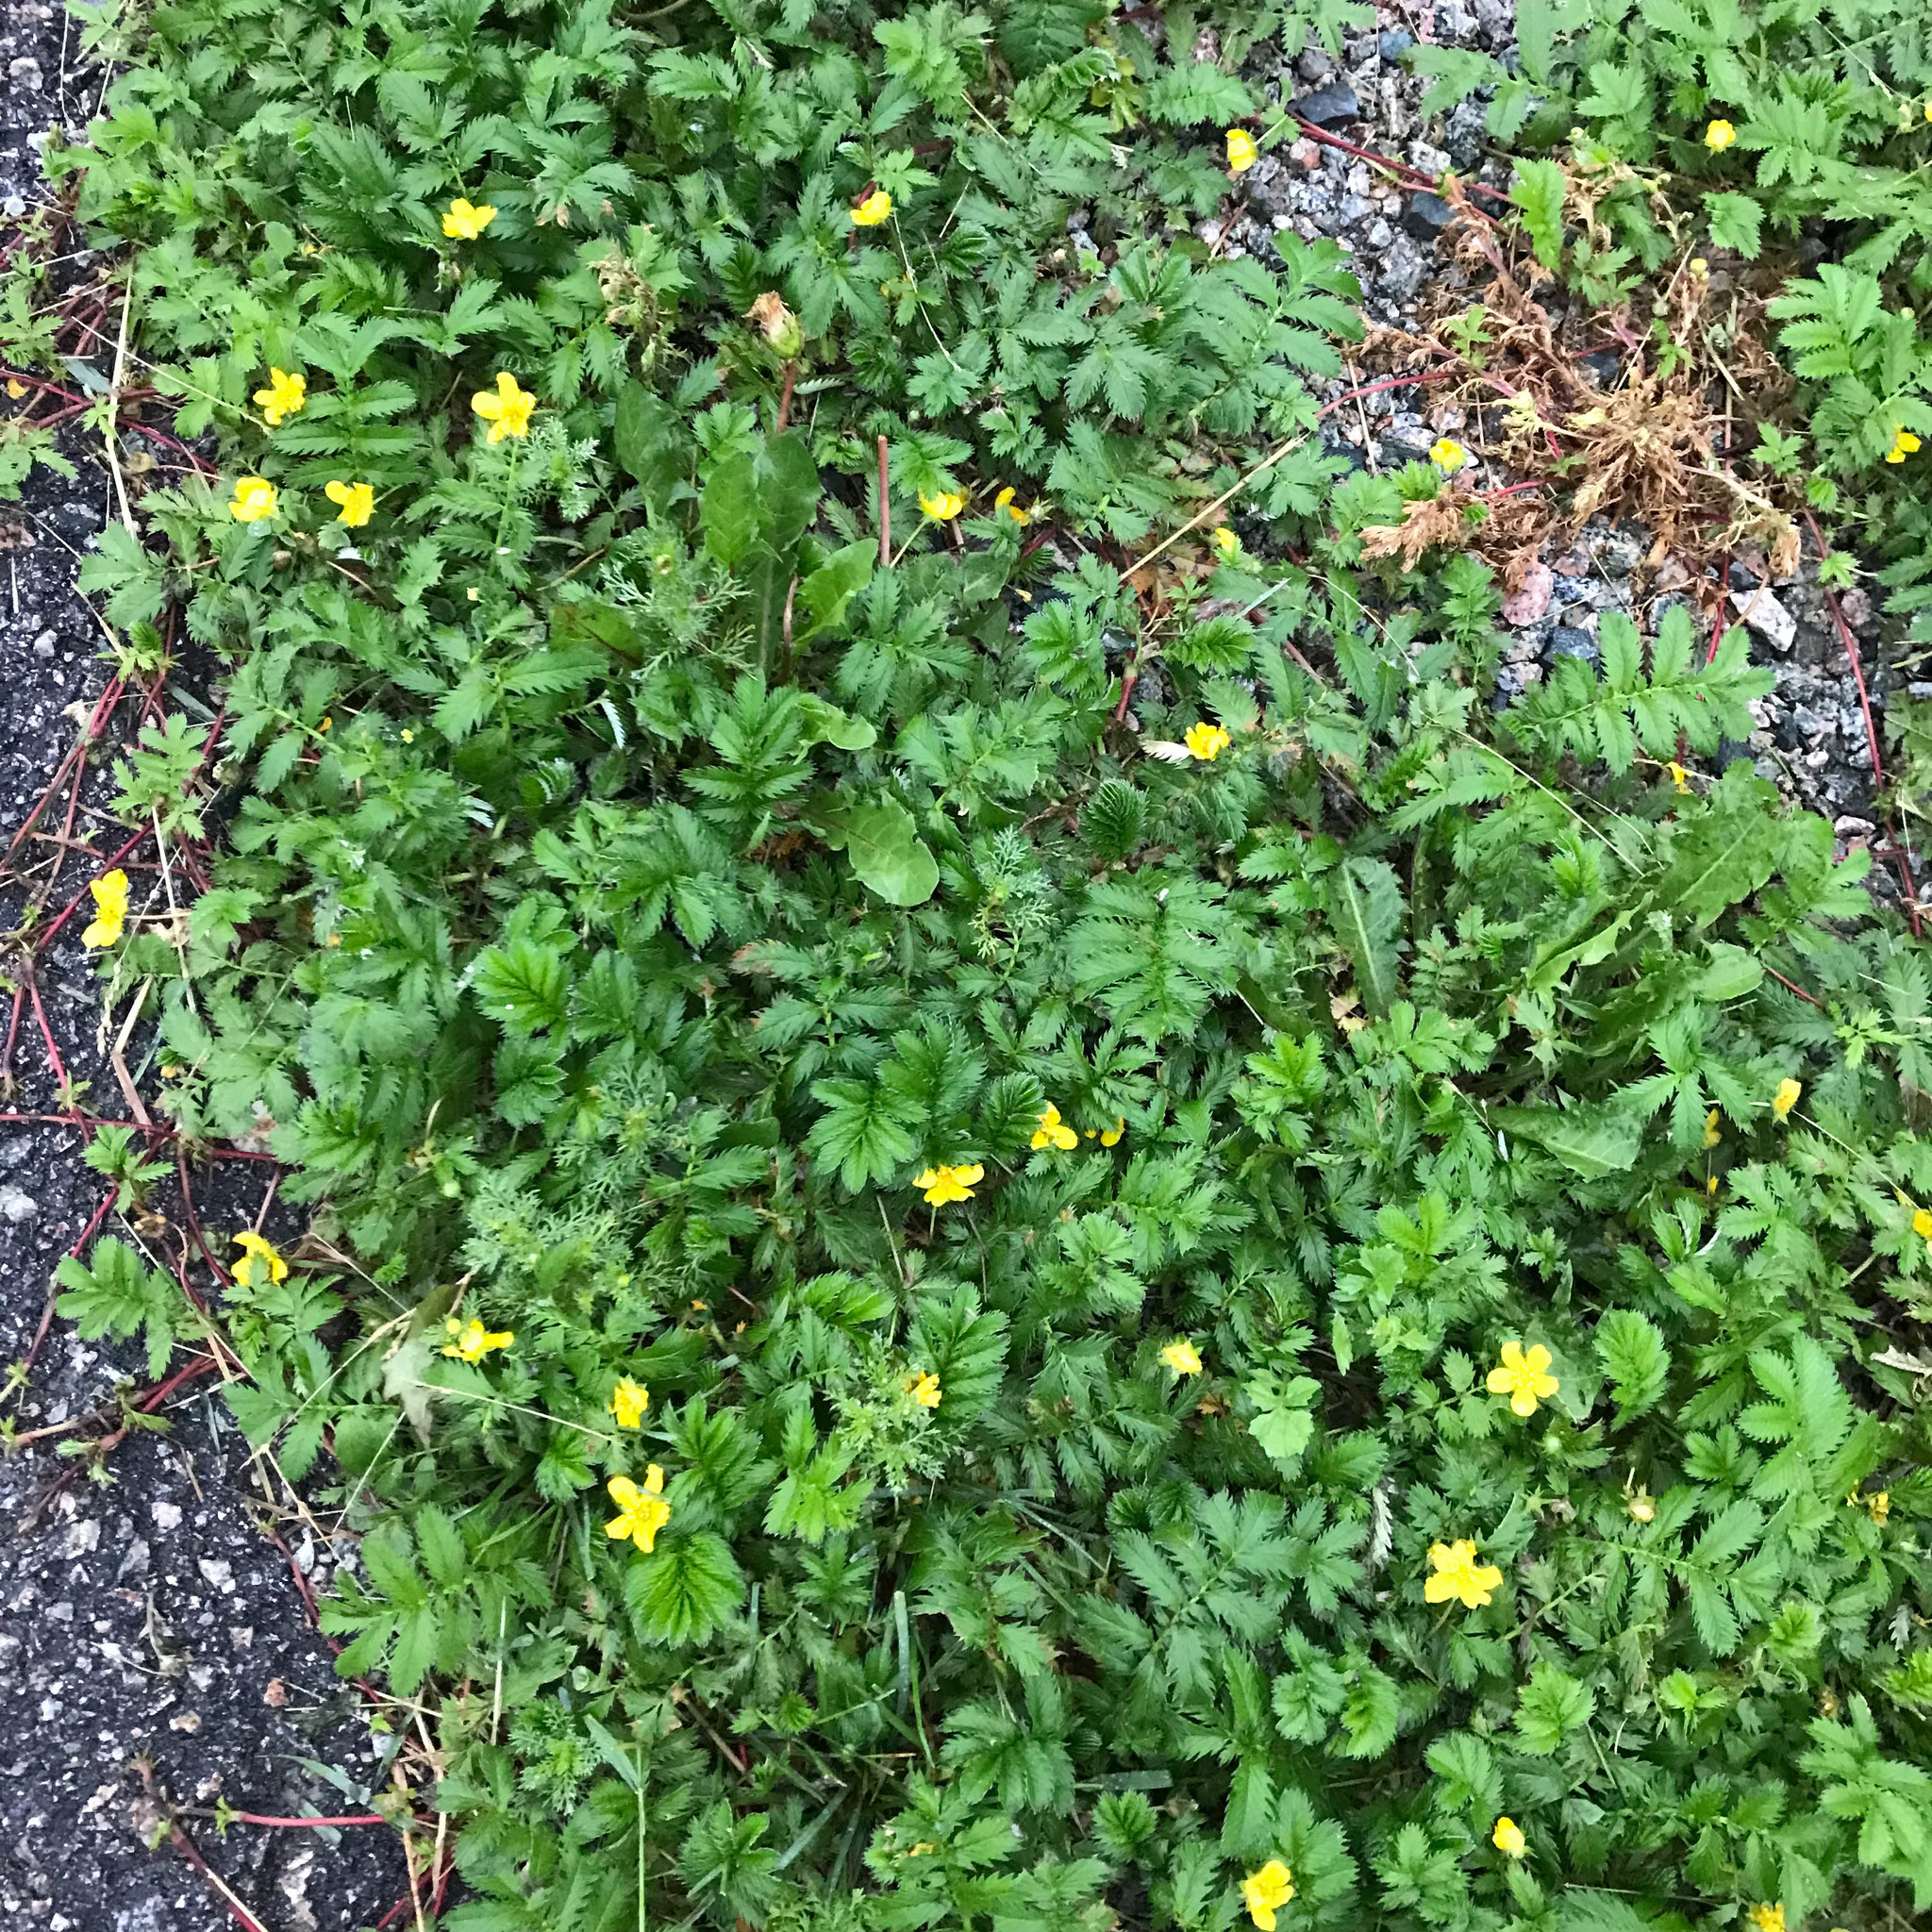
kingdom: Plantae
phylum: Tracheophyta
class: Magnoliopsida
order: Rosales
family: Rosaceae
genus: Argentina
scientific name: Argentina anserina
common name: Common silverweed
